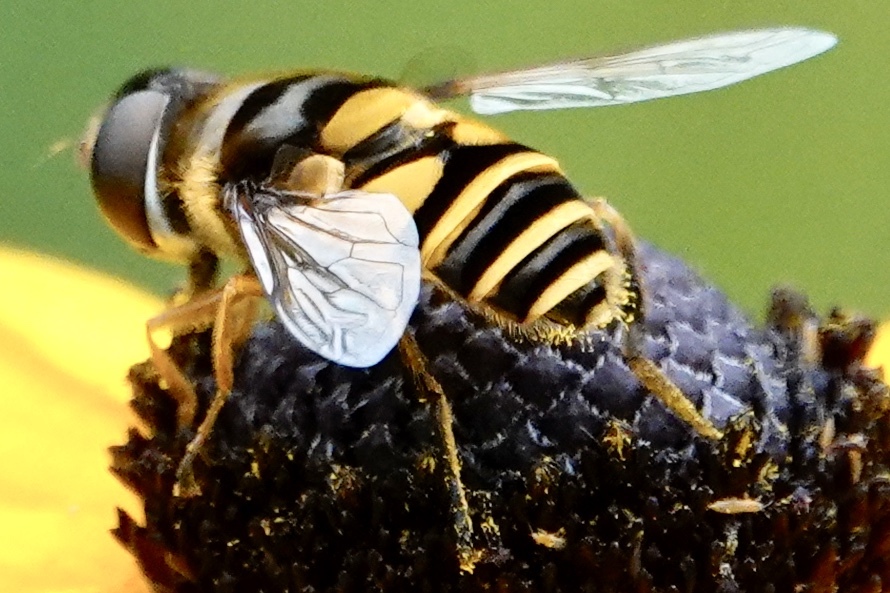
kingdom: Animalia
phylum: Arthropoda
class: Insecta
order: Diptera
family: Syrphidae
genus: Eristalis
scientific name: Eristalis transversa
